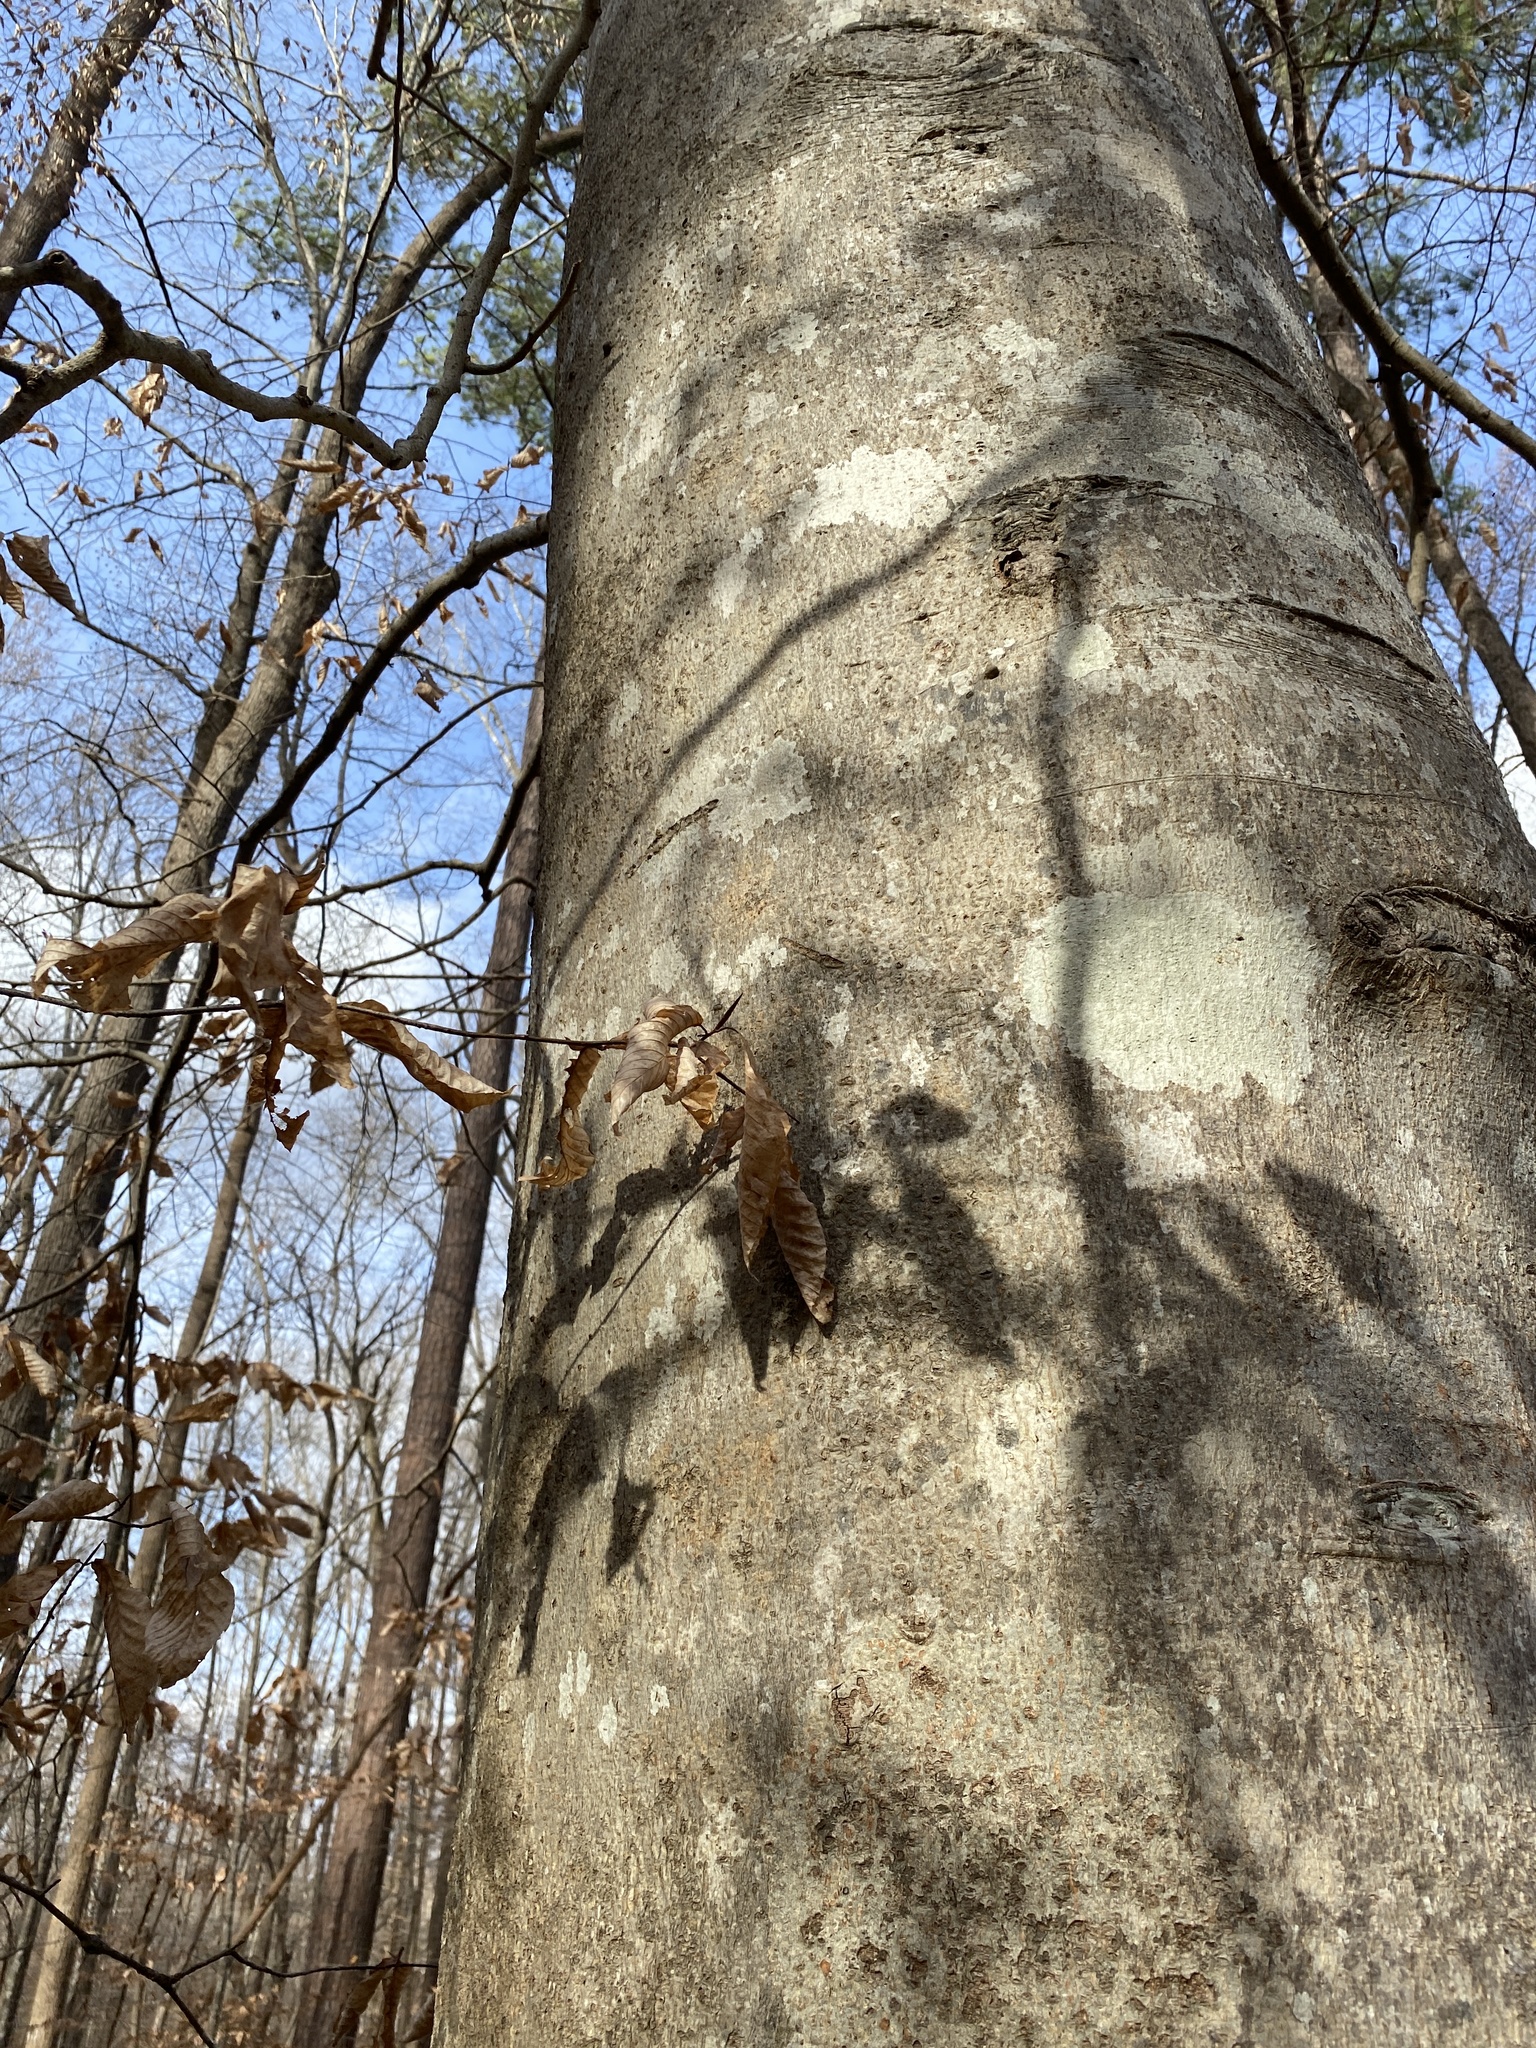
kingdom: Plantae
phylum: Tracheophyta
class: Magnoliopsida
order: Fagales
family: Fagaceae
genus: Fagus
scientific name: Fagus grandifolia
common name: American beech
